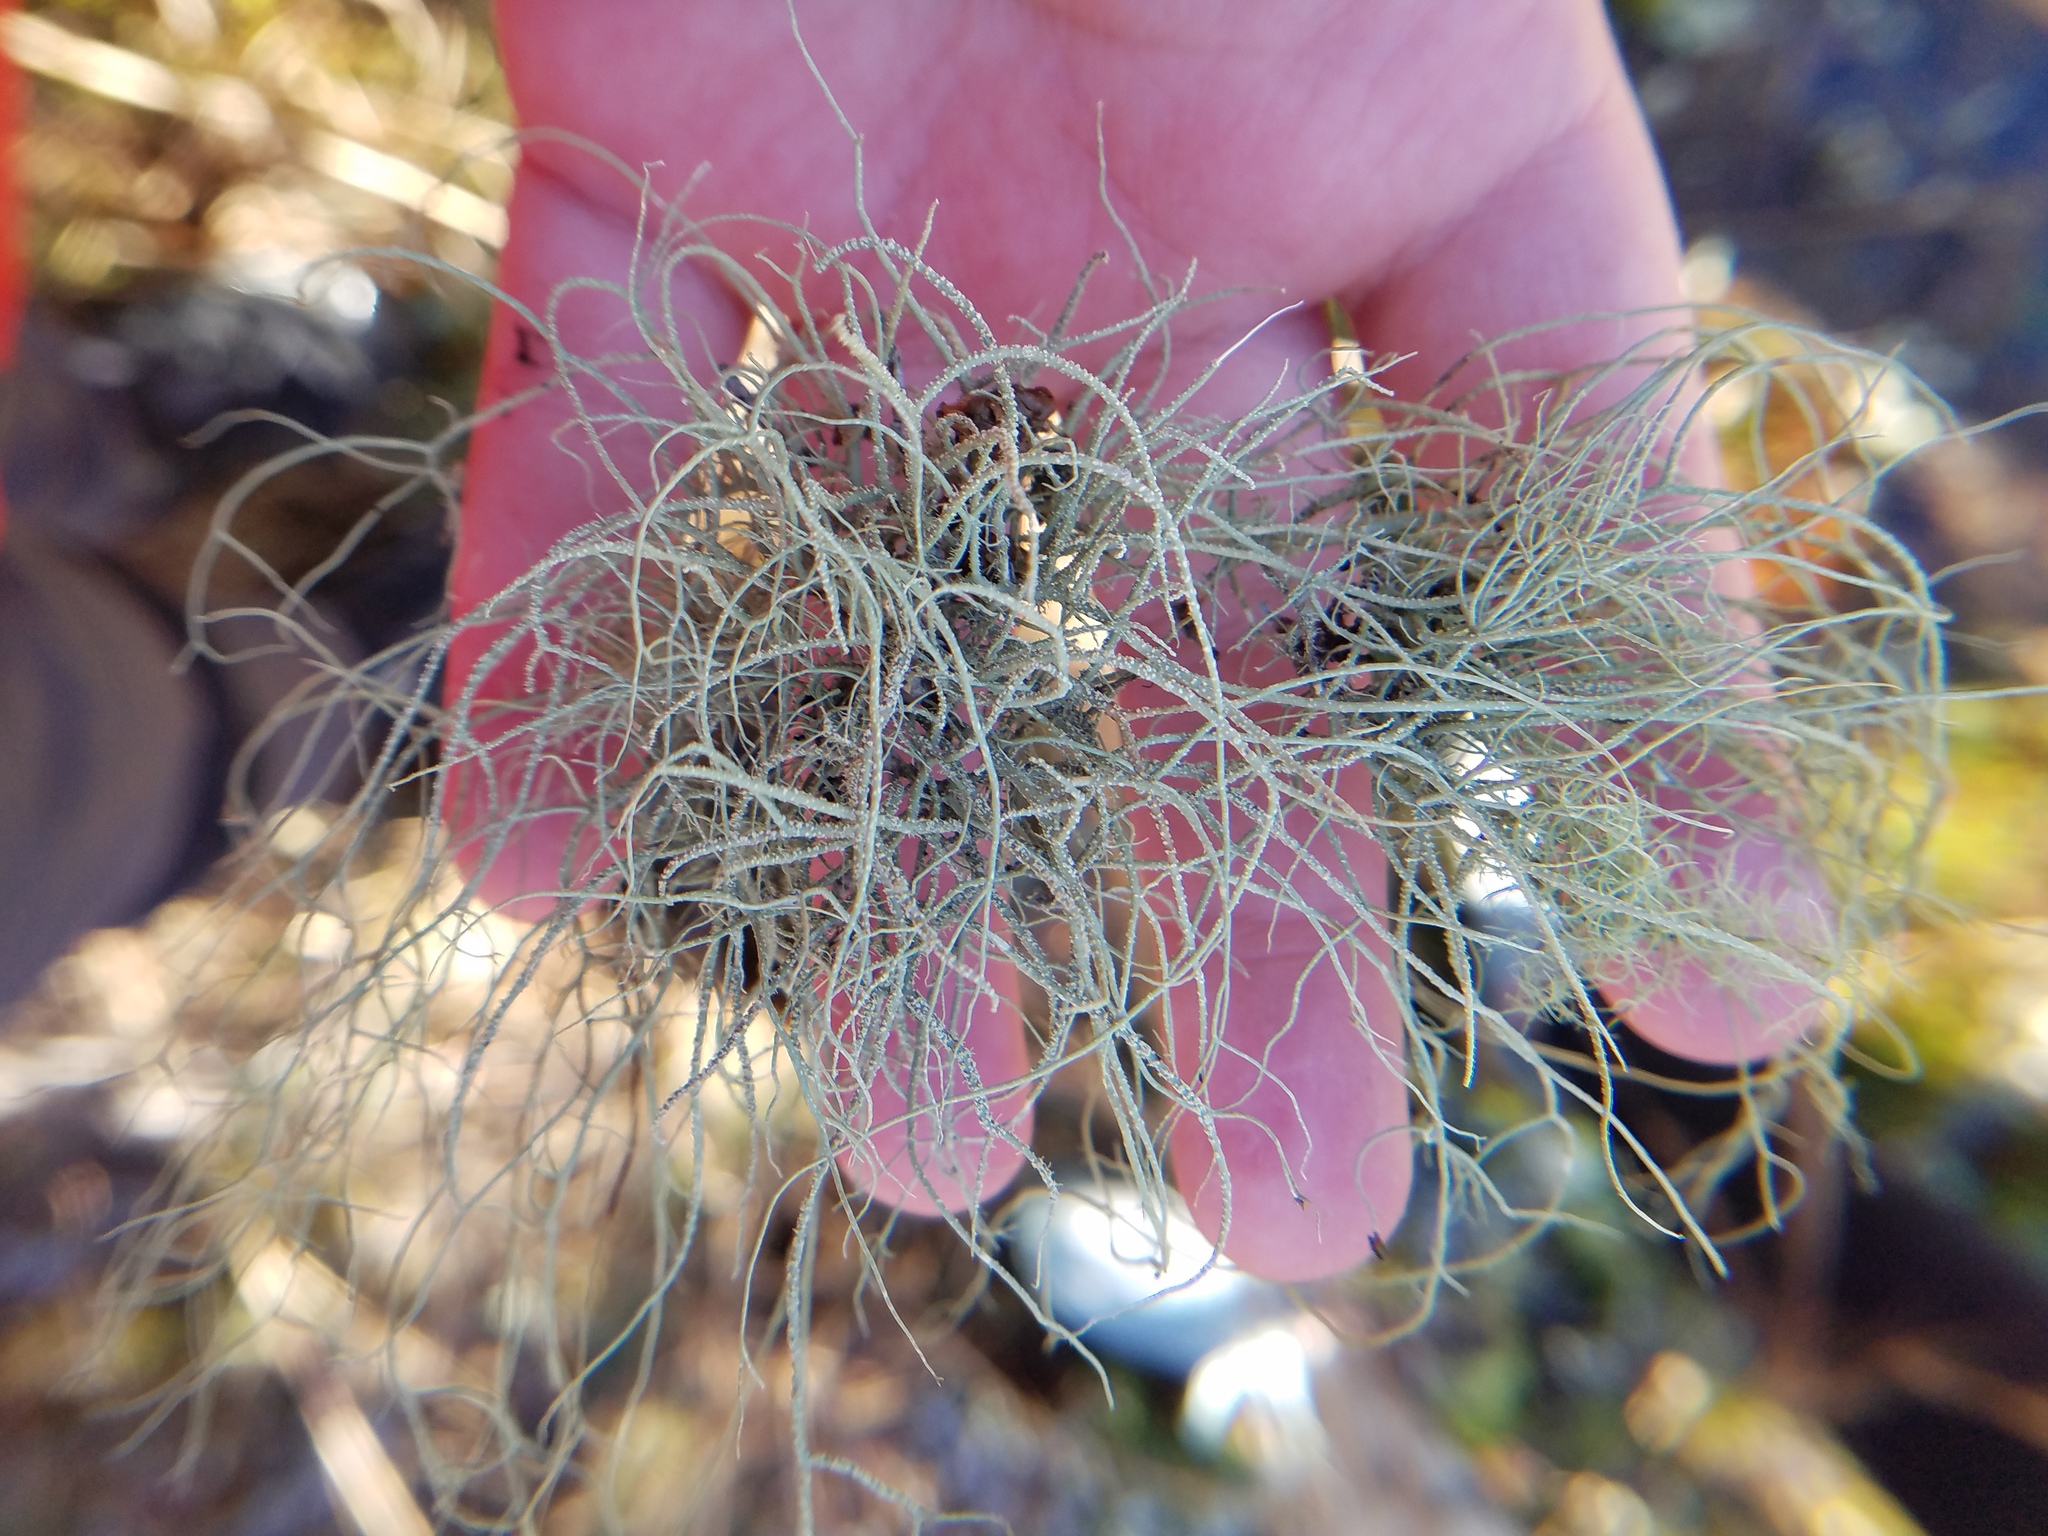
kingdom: Fungi
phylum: Ascomycota
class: Lecanoromycetes
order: Lecanorales
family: Parmeliaceae
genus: Usnea
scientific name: Usnea subscabrosa
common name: Beard lichen
